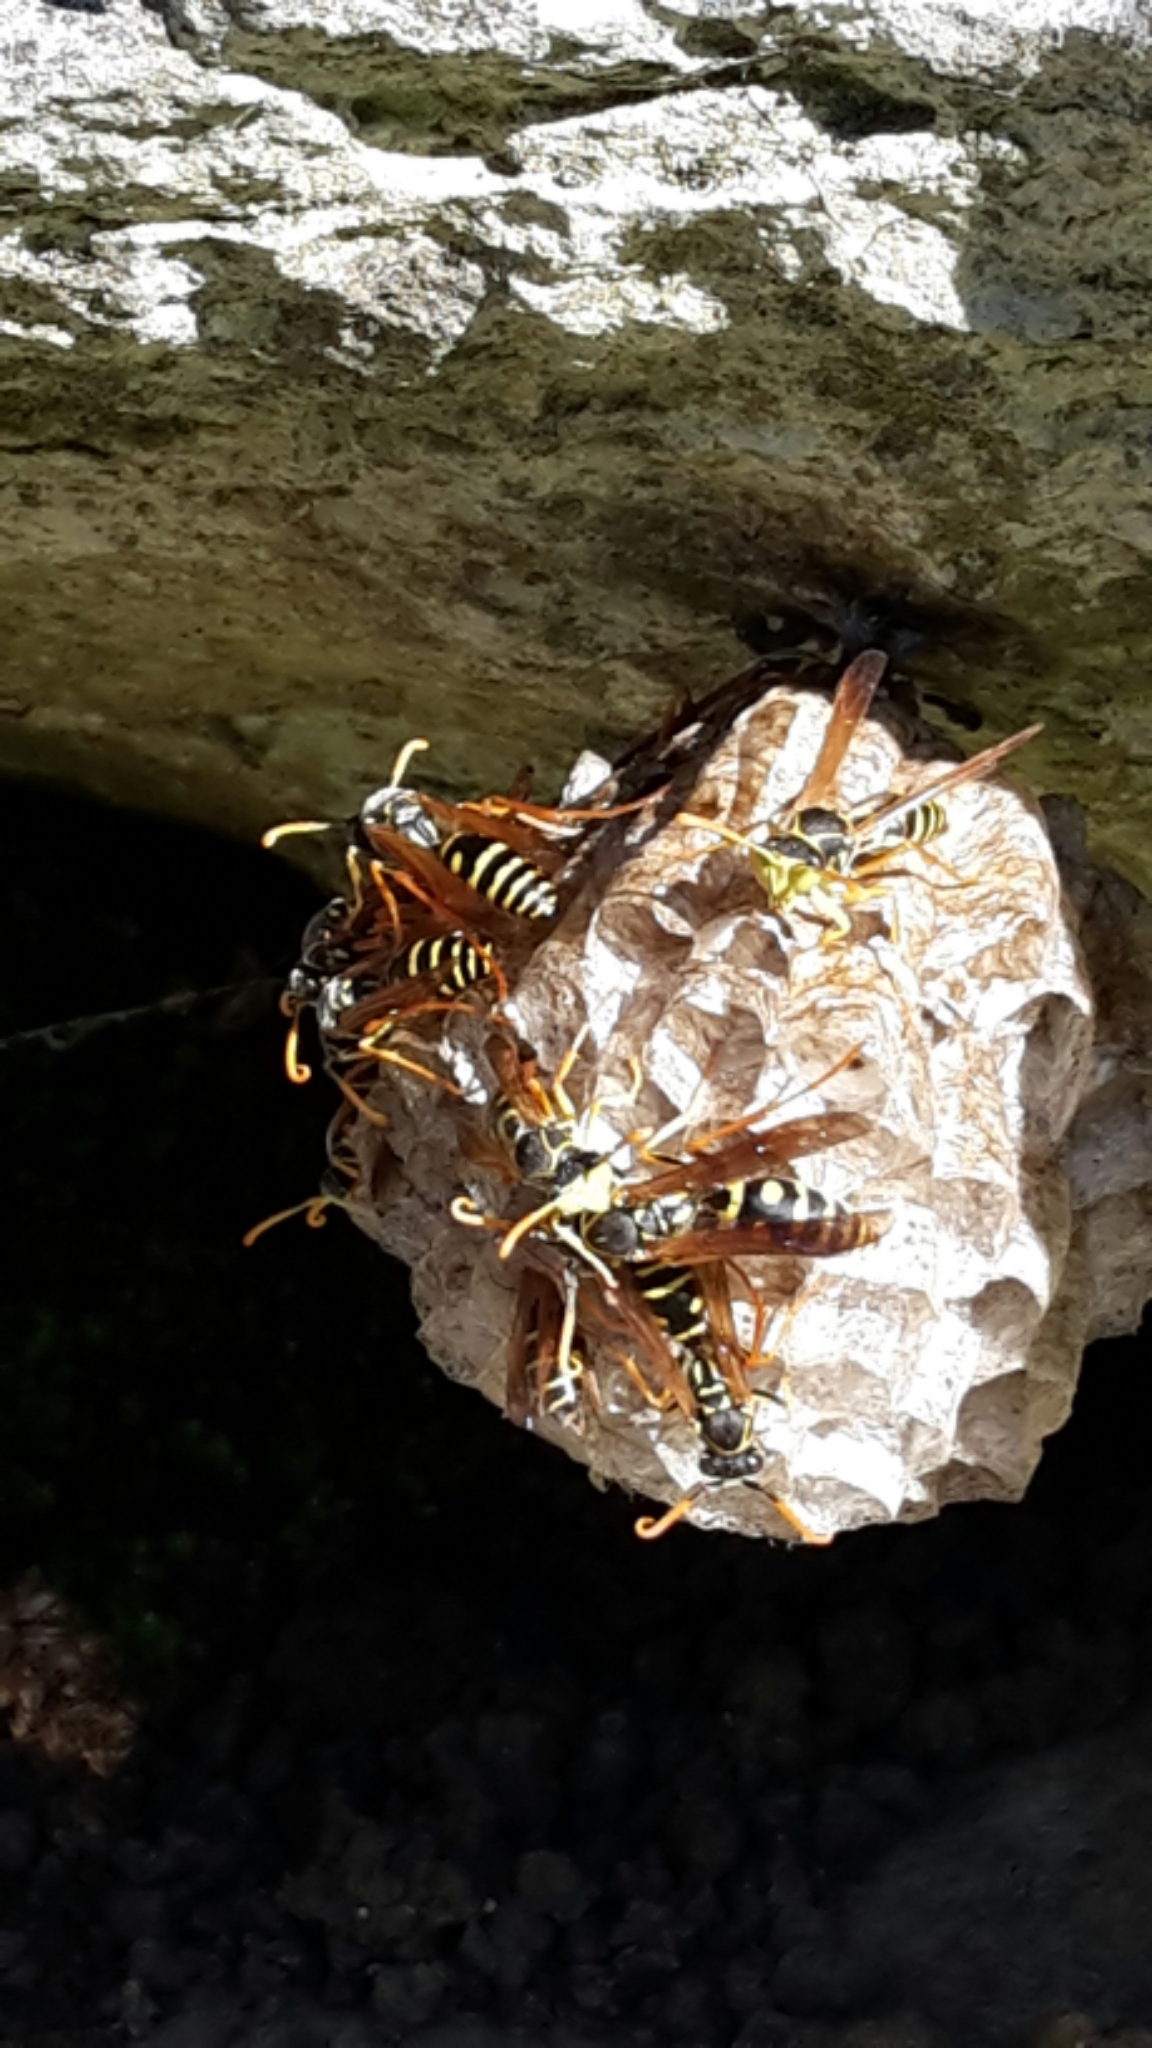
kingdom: Animalia
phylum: Arthropoda
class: Insecta
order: Hymenoptera
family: Eumenidae
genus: Polistes
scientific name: Polistes chinensis
